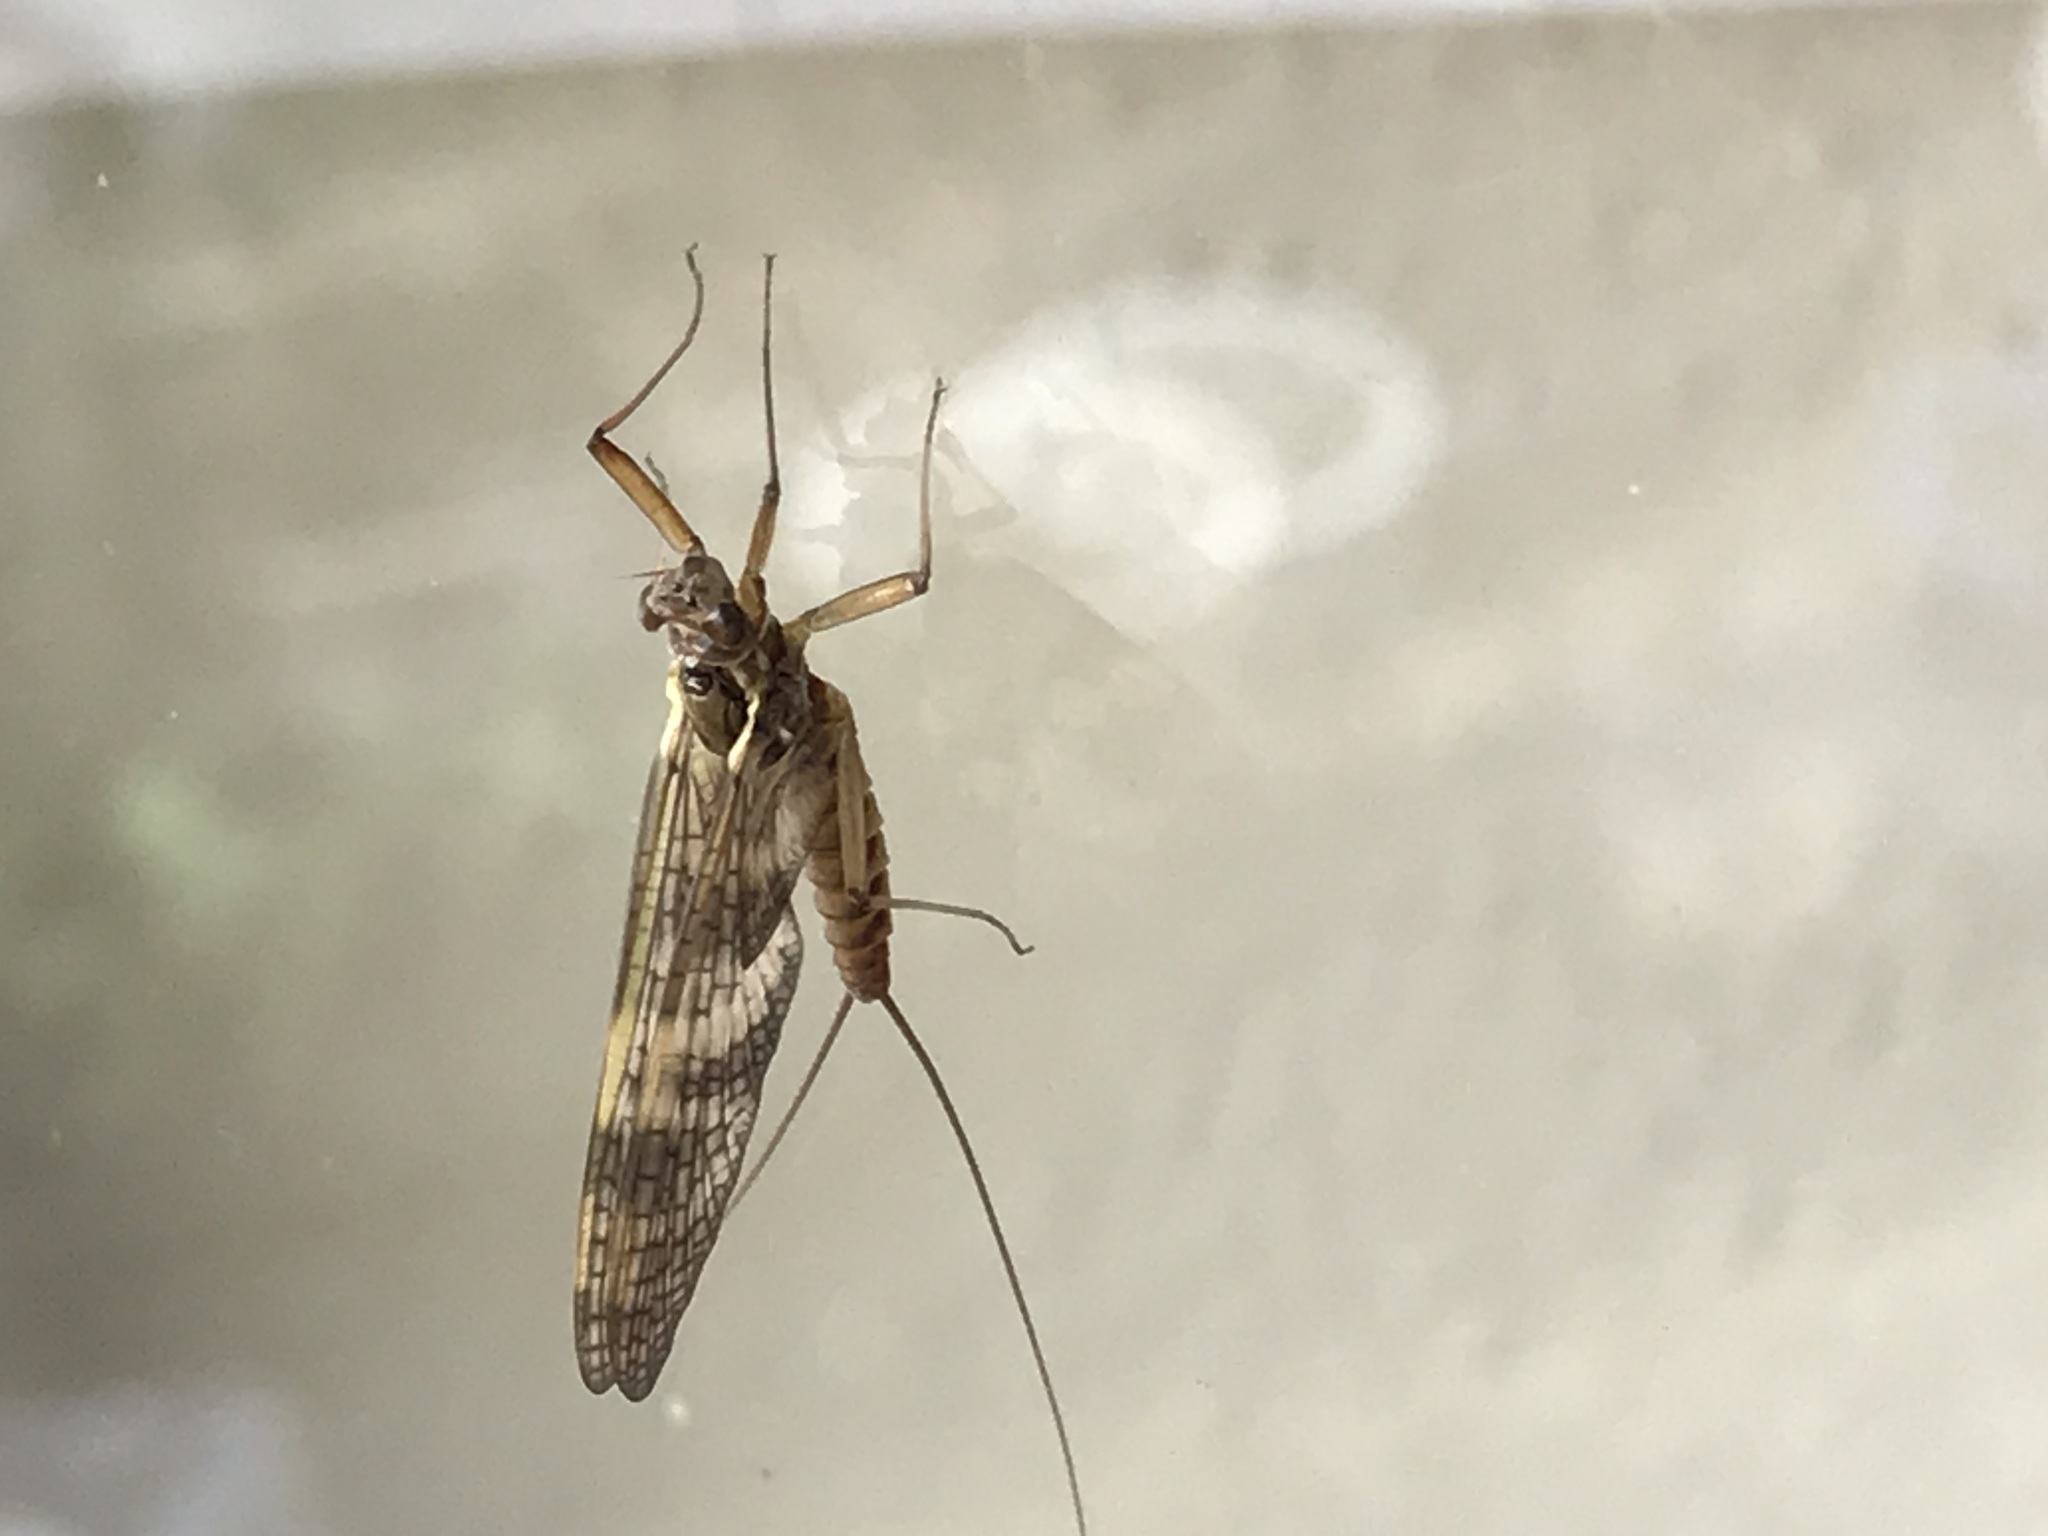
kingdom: Animalia
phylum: Arthropoda
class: Insecta
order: Ephemeroptera
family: Heptageniidae
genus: Ecdyonurus
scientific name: Ecdyonurus torrentis
